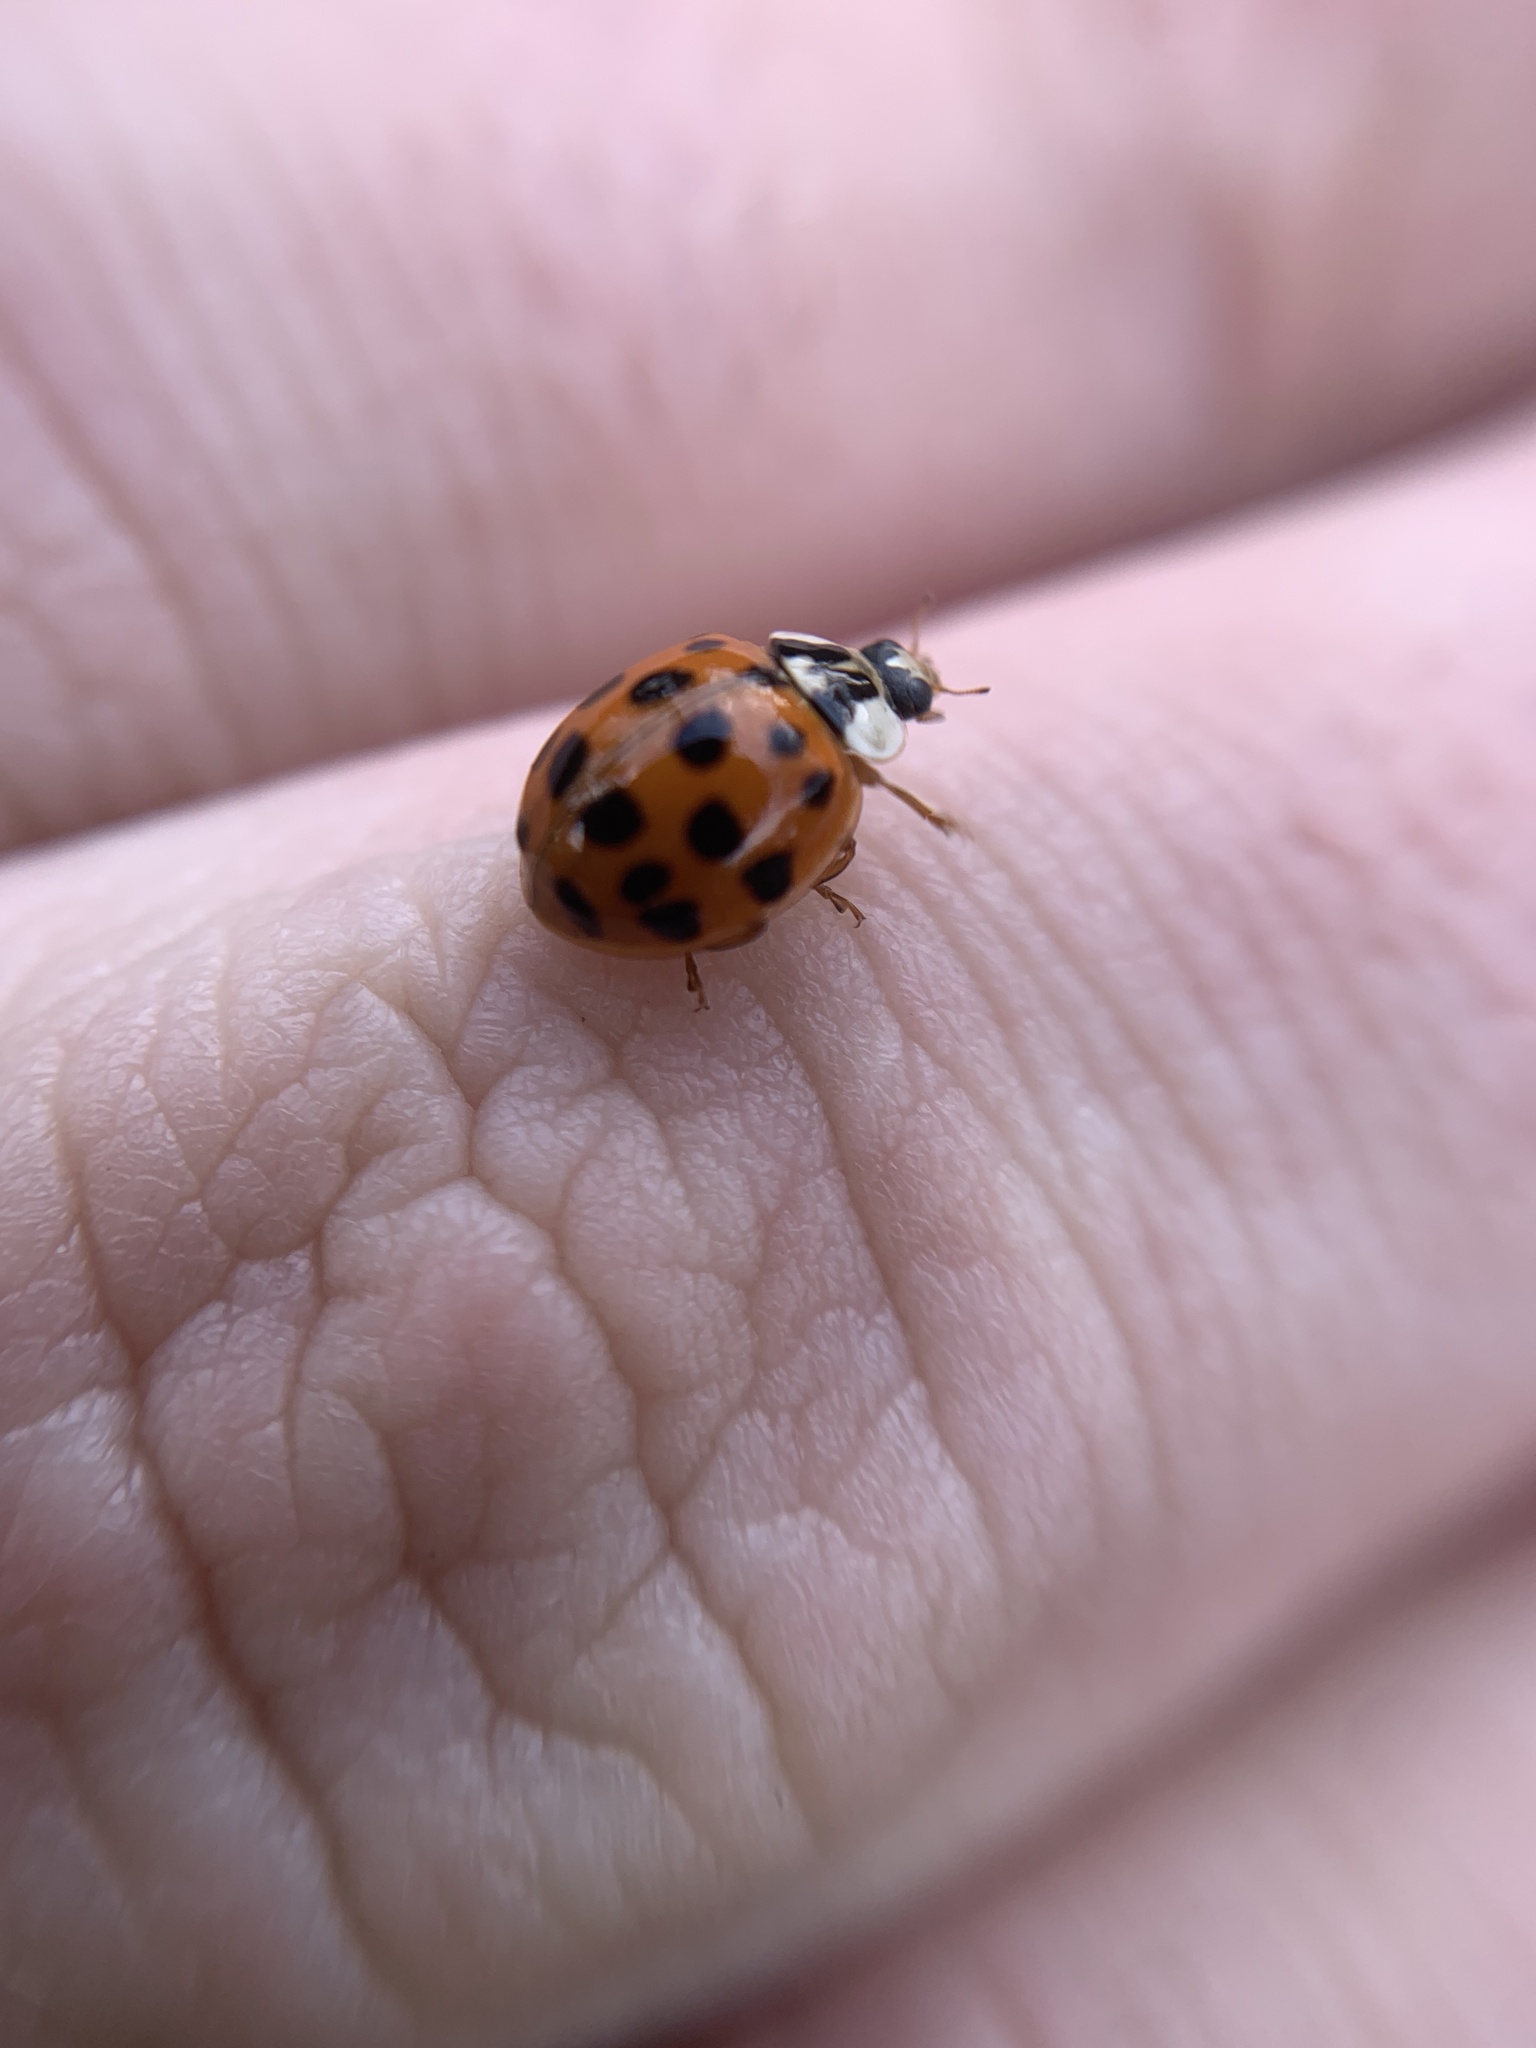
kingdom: Animalia
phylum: Arthropoda
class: Insecta
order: Coleoptera
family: Coccinellidae
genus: Harmonia
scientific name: Harmonia axyridis
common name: Harlequin ladybird
